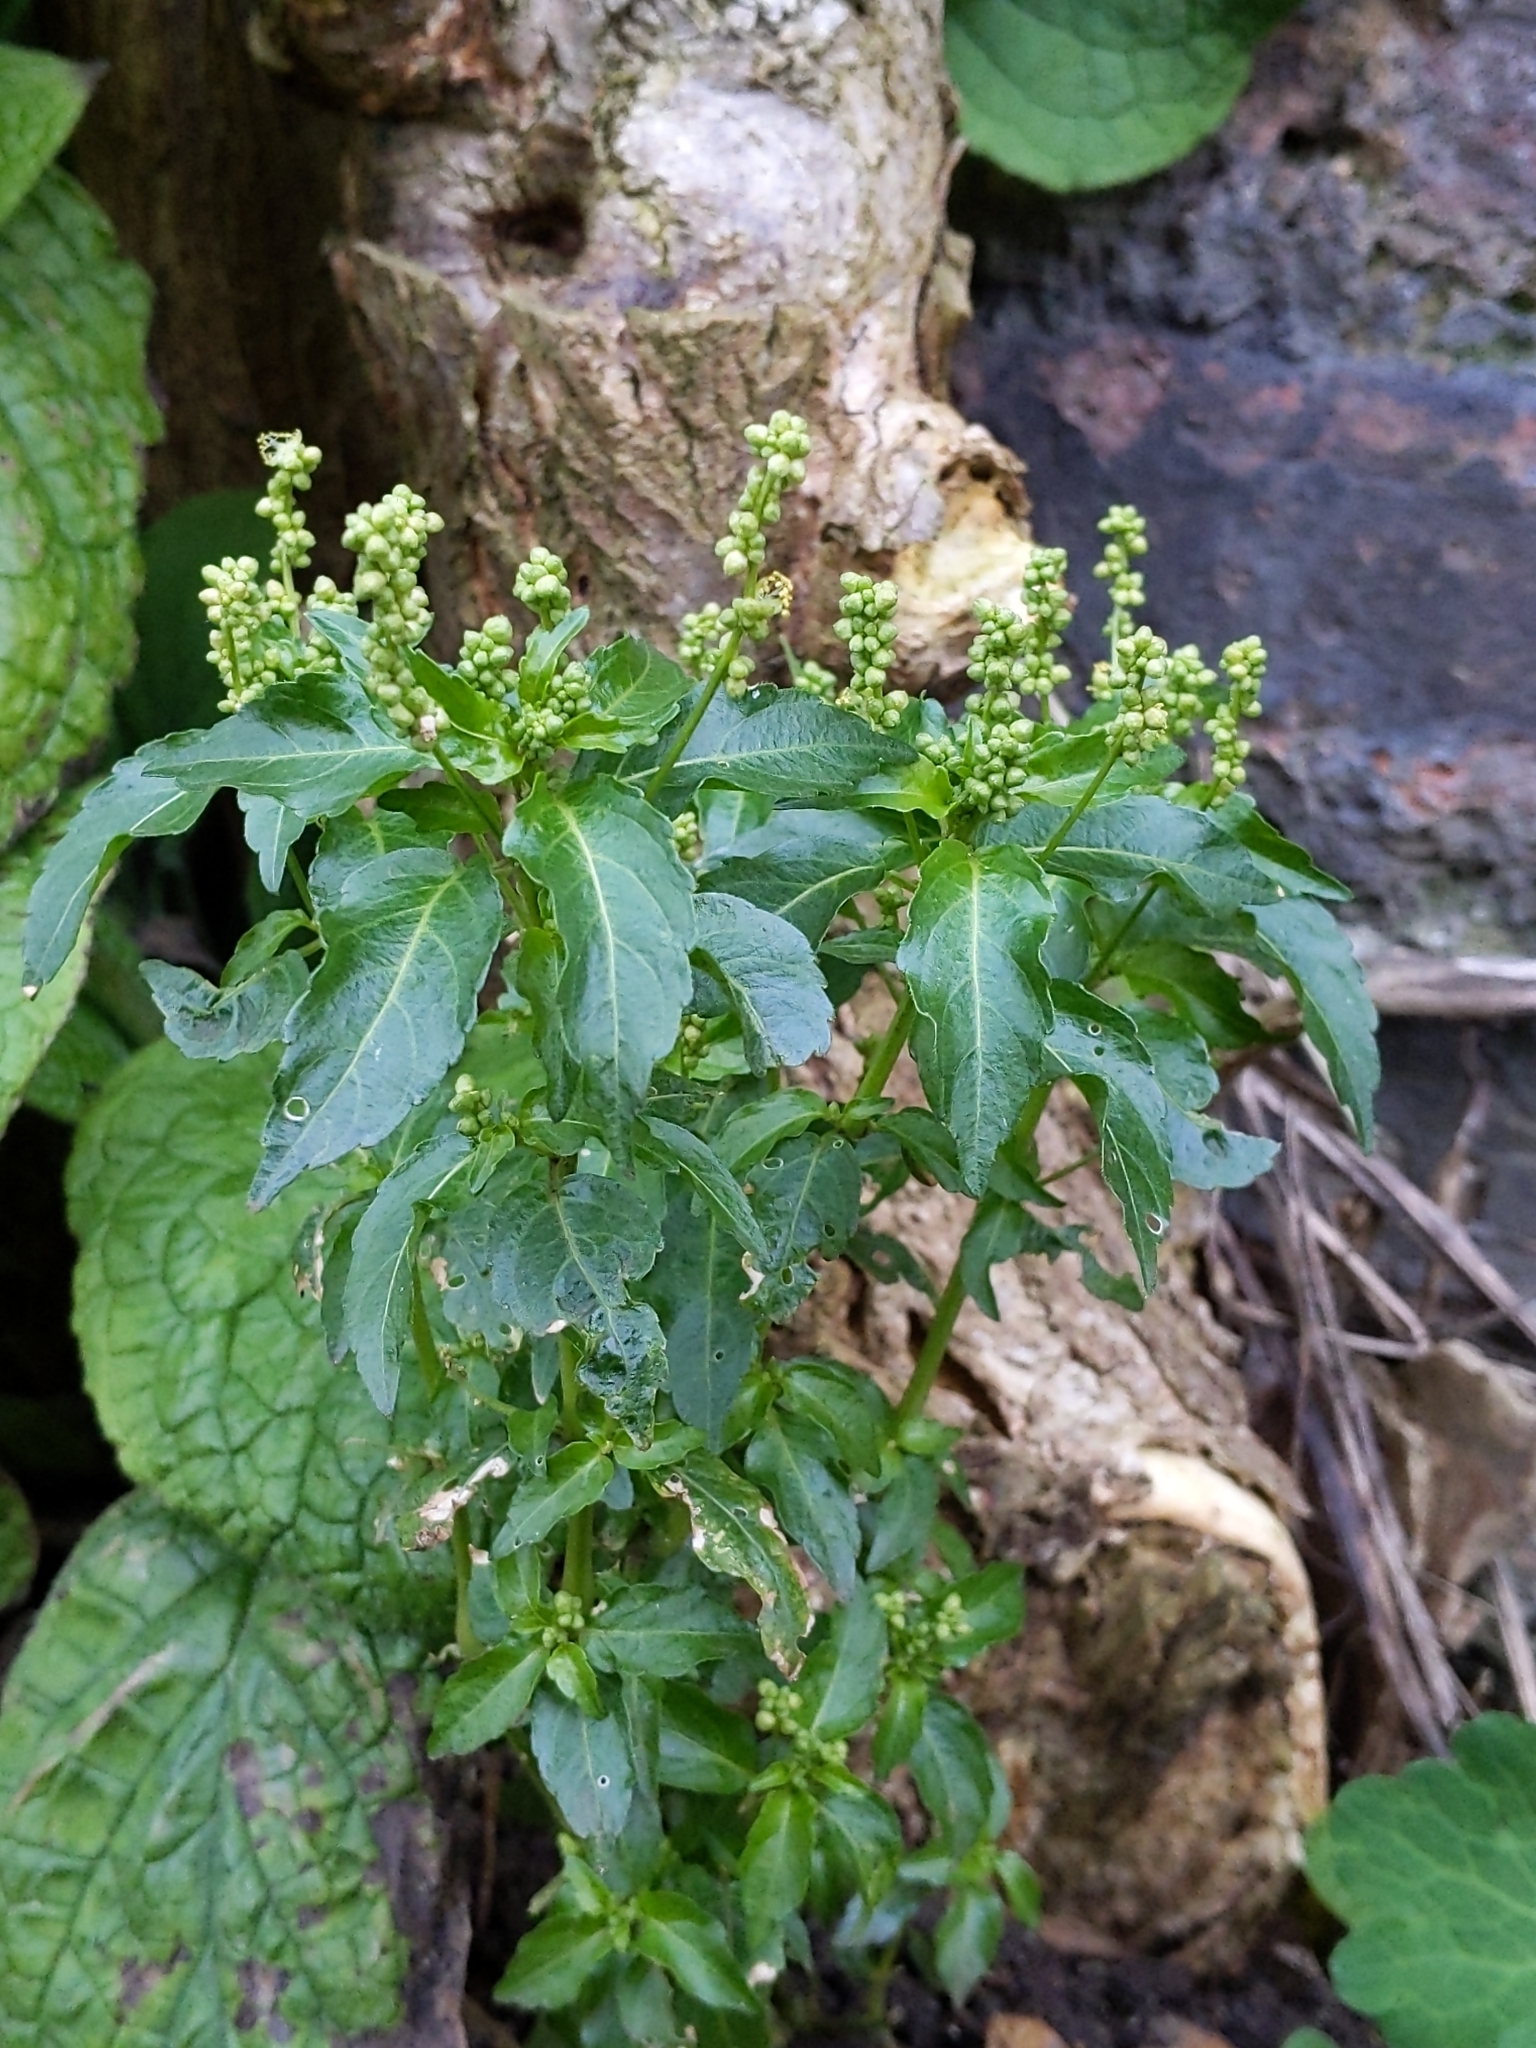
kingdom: Plantae
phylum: Tracheophyta
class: Magnoliopsida
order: Malpighiales
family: Euphorbiaceae
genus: Mercurialis
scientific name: Mercurialis annua
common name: Annual mercury
